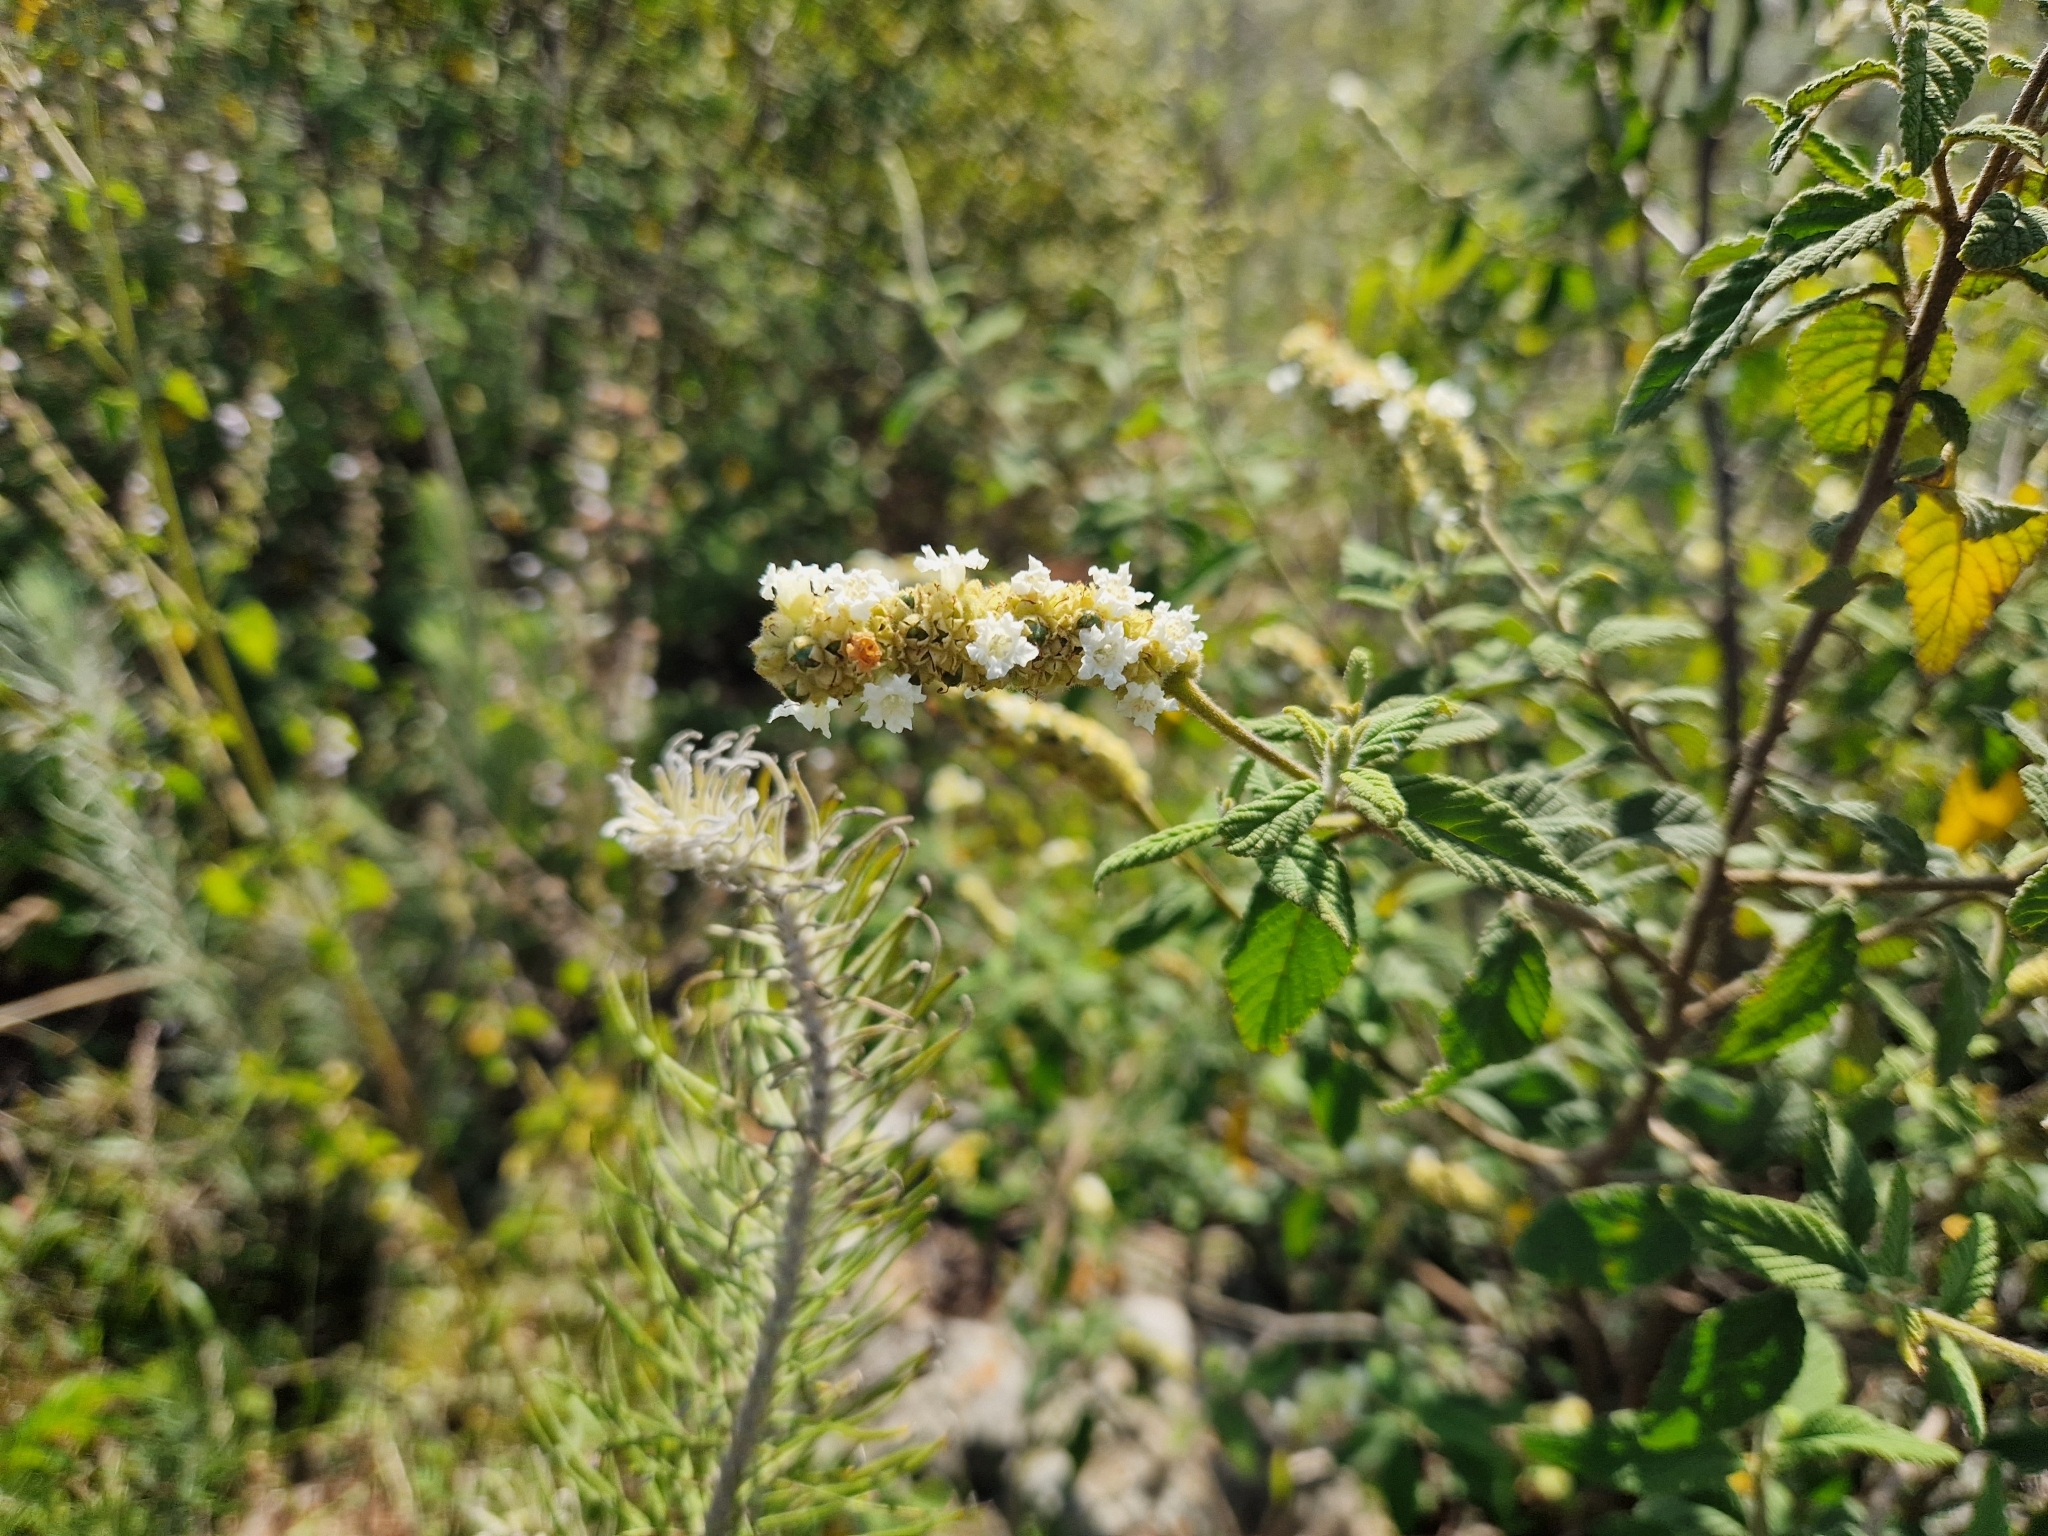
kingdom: Plantae
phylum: Tracheophyta
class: Magnoliopsida
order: Boraginales
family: Cordiaceae
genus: Varronia
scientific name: Varronia curassavica
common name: Black sage
